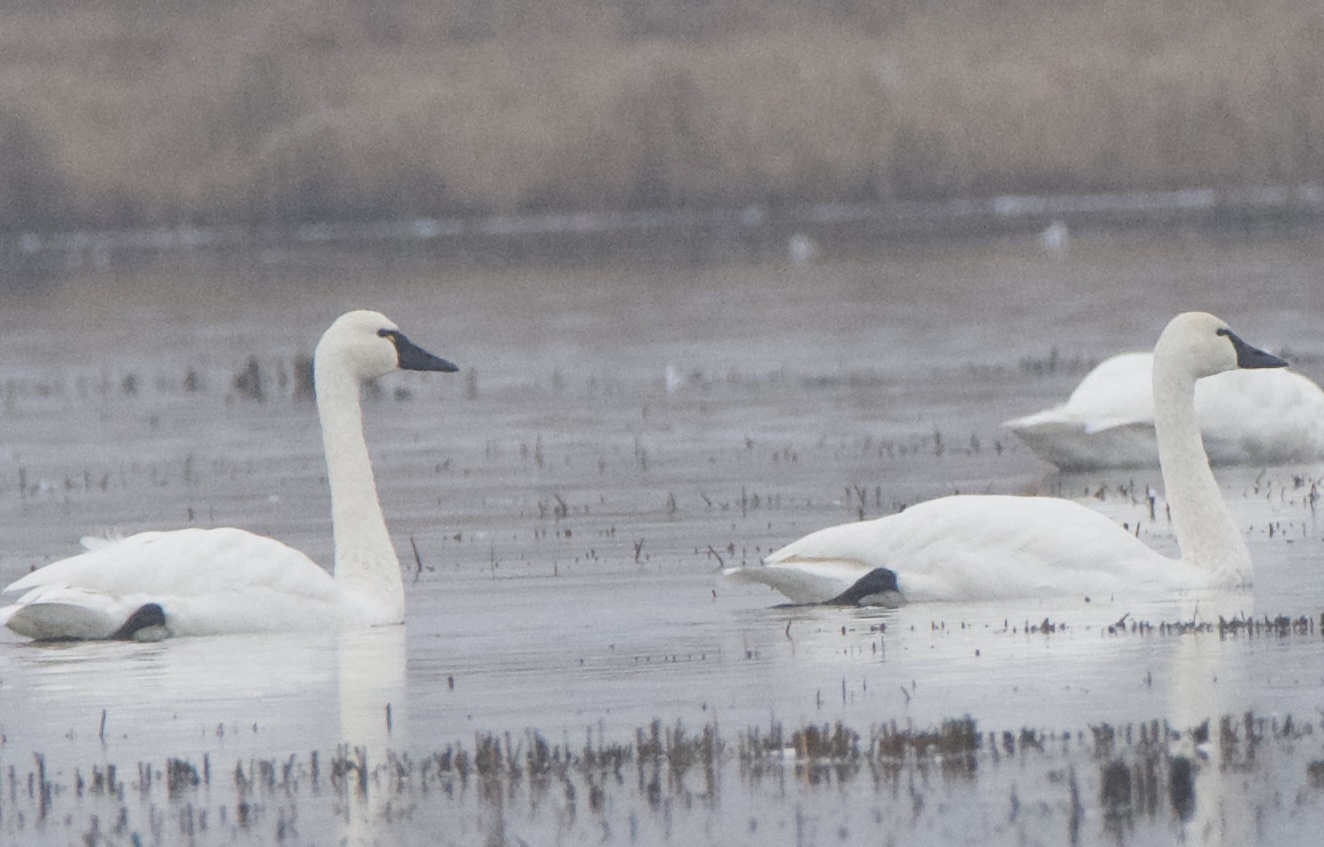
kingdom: Animalia
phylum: Chordata
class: Aves
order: Anseriformes
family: Anatidae
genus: Cygnus
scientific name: Cygnus columbianus
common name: Tundra swan
